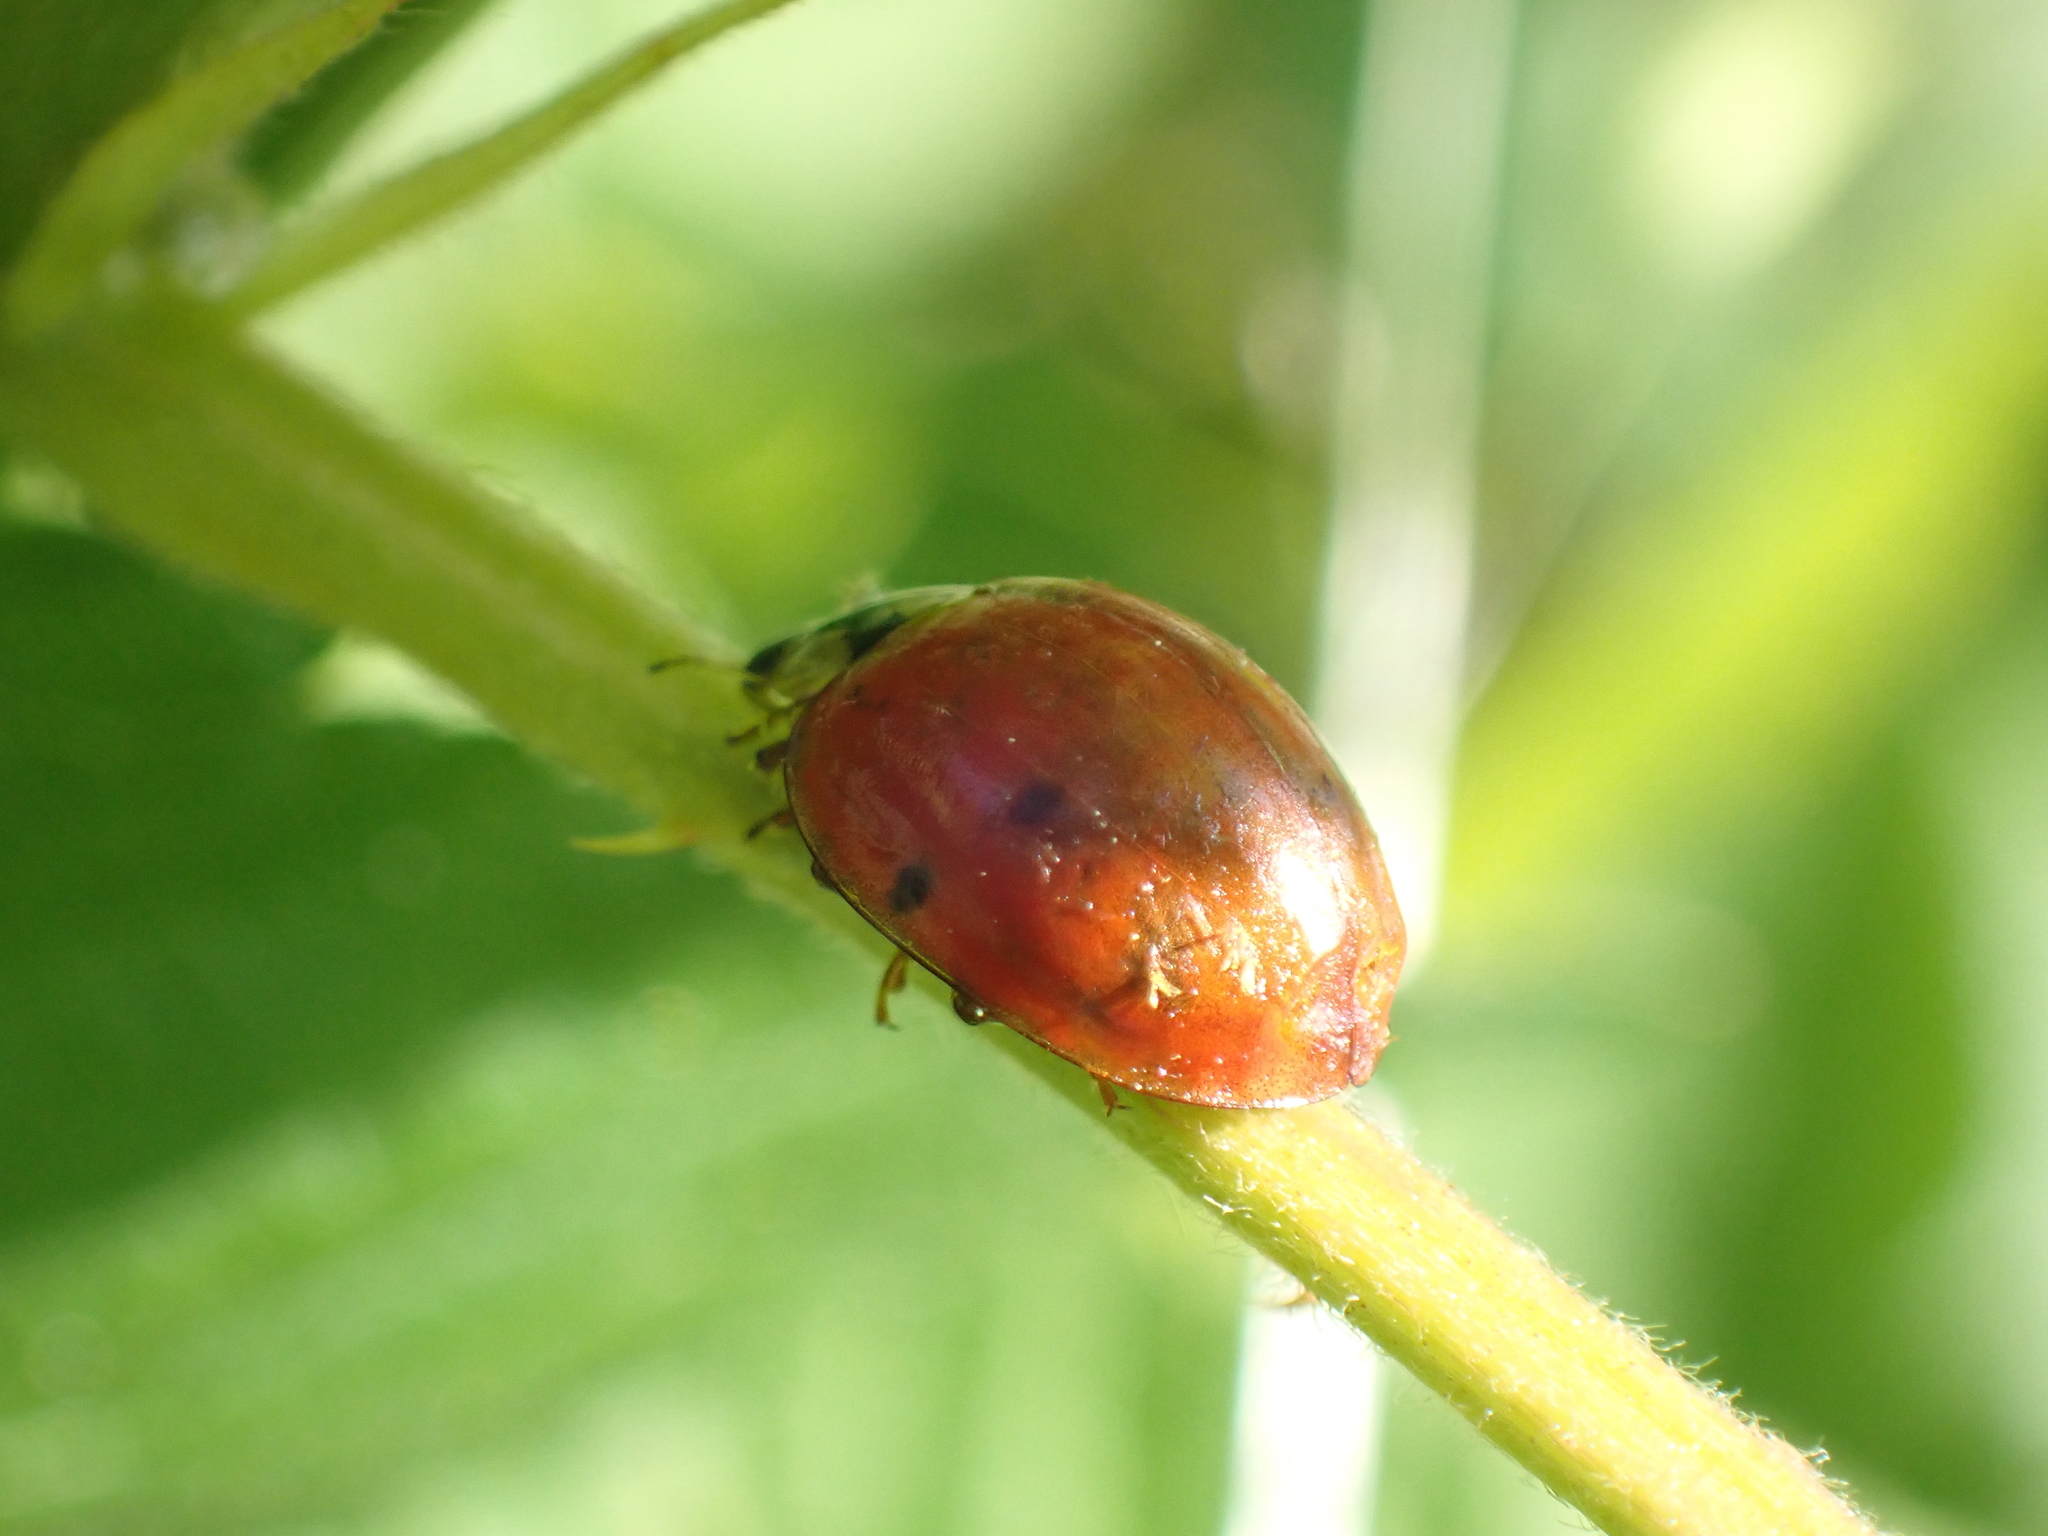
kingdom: Fungi
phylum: Ascomycota
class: Laboulbeniomycetes
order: Laboulbeniales
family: Laboulbeniaceae
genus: Hesperomyces
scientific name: Hesperomyces harmoniae
